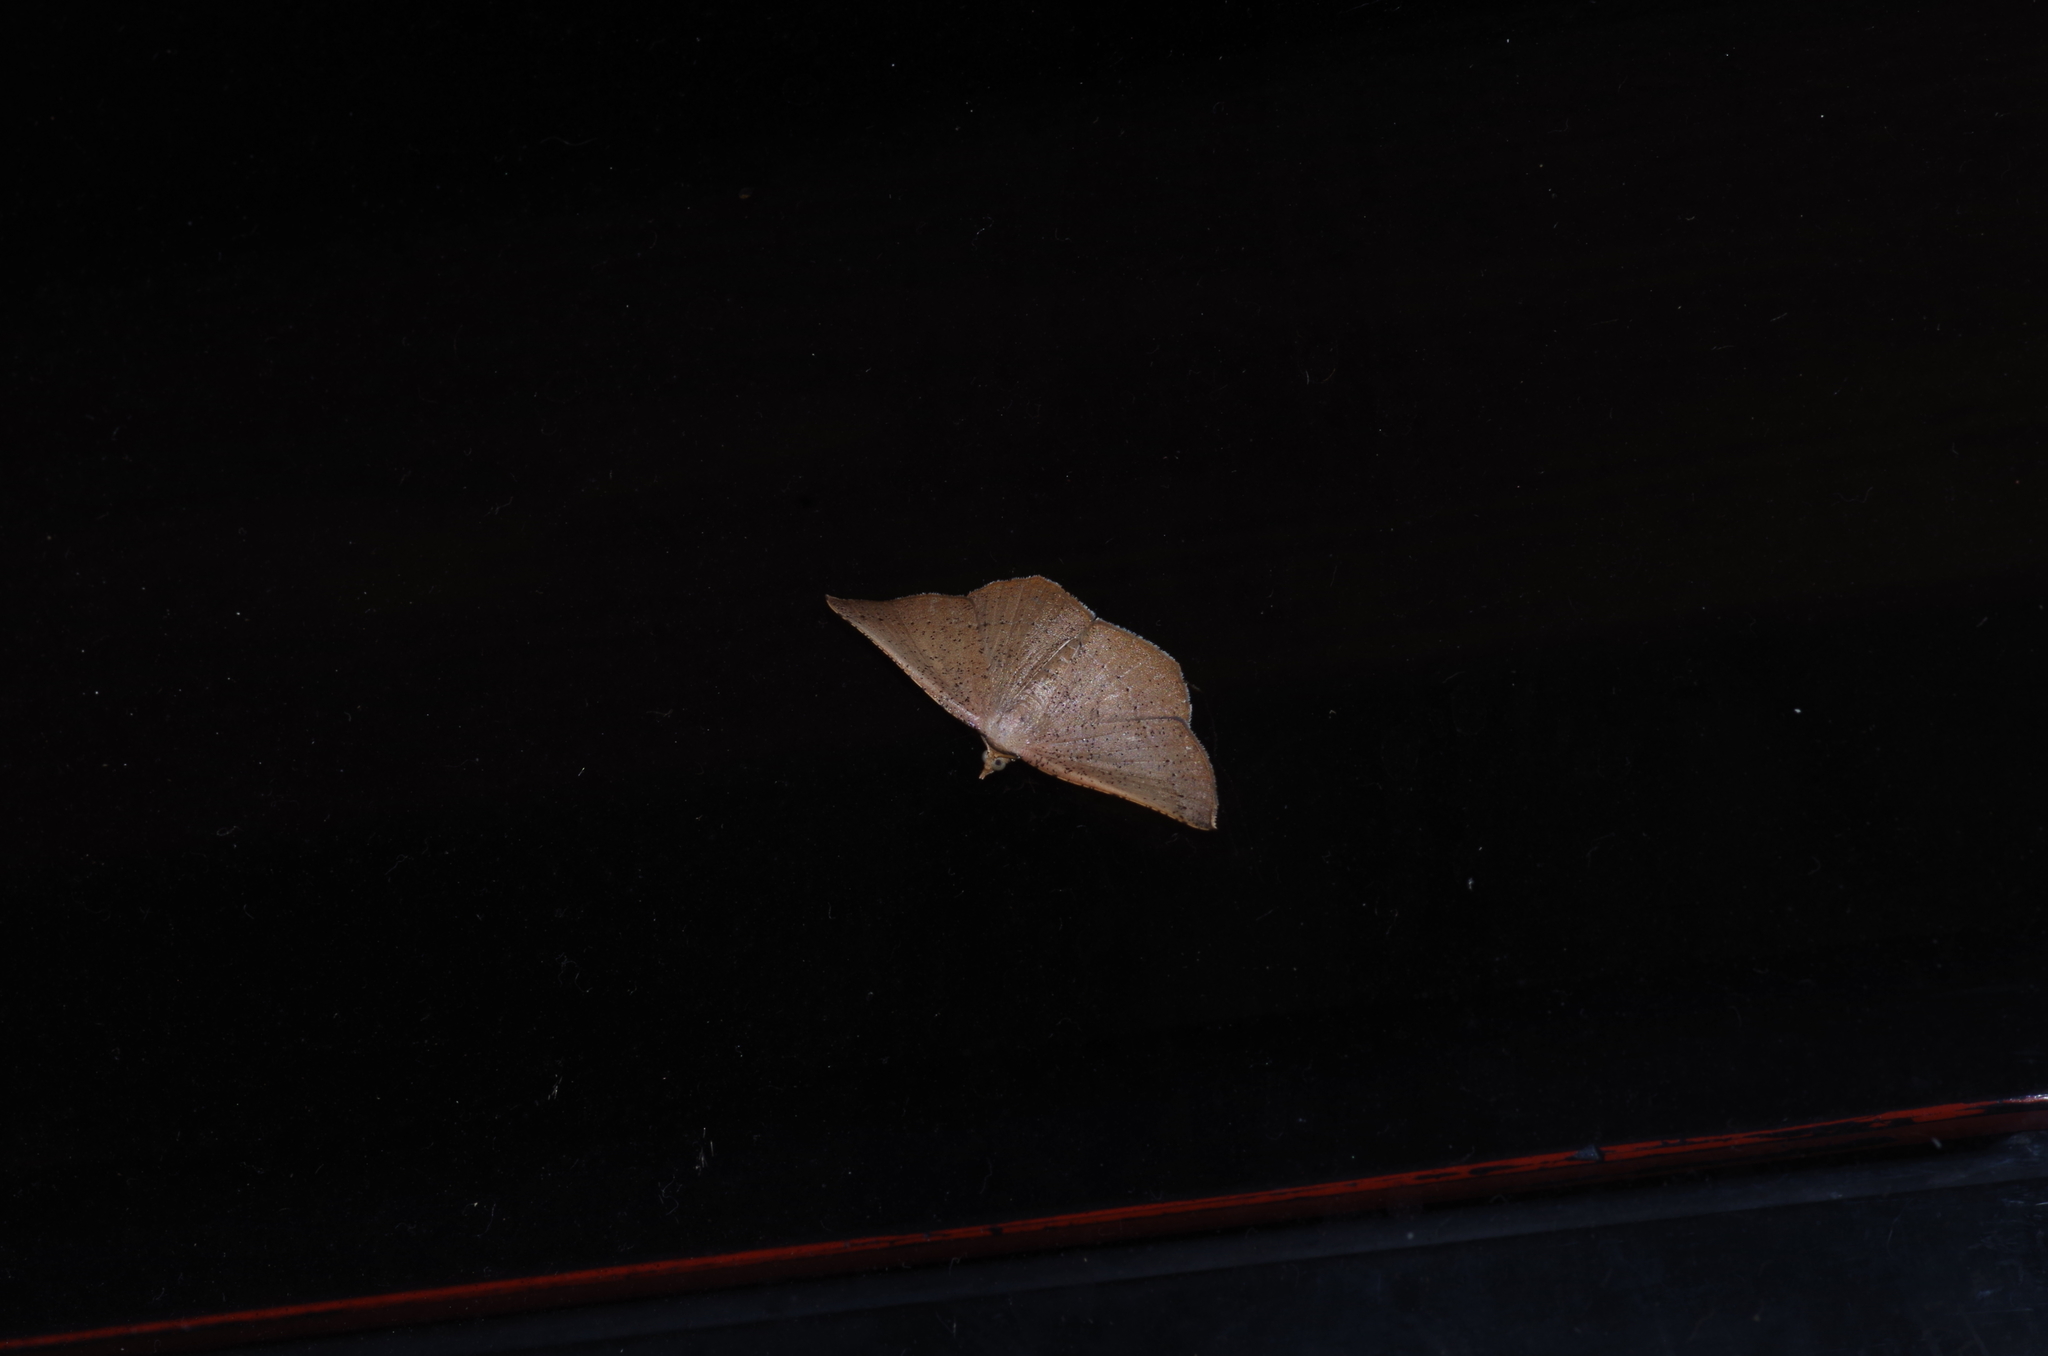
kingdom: Animalia
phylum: Arthropoda
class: Insecta
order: Lepidoptera
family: Geometridae
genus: Plesiomorpha
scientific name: Plesiomorpha punctilinearia
